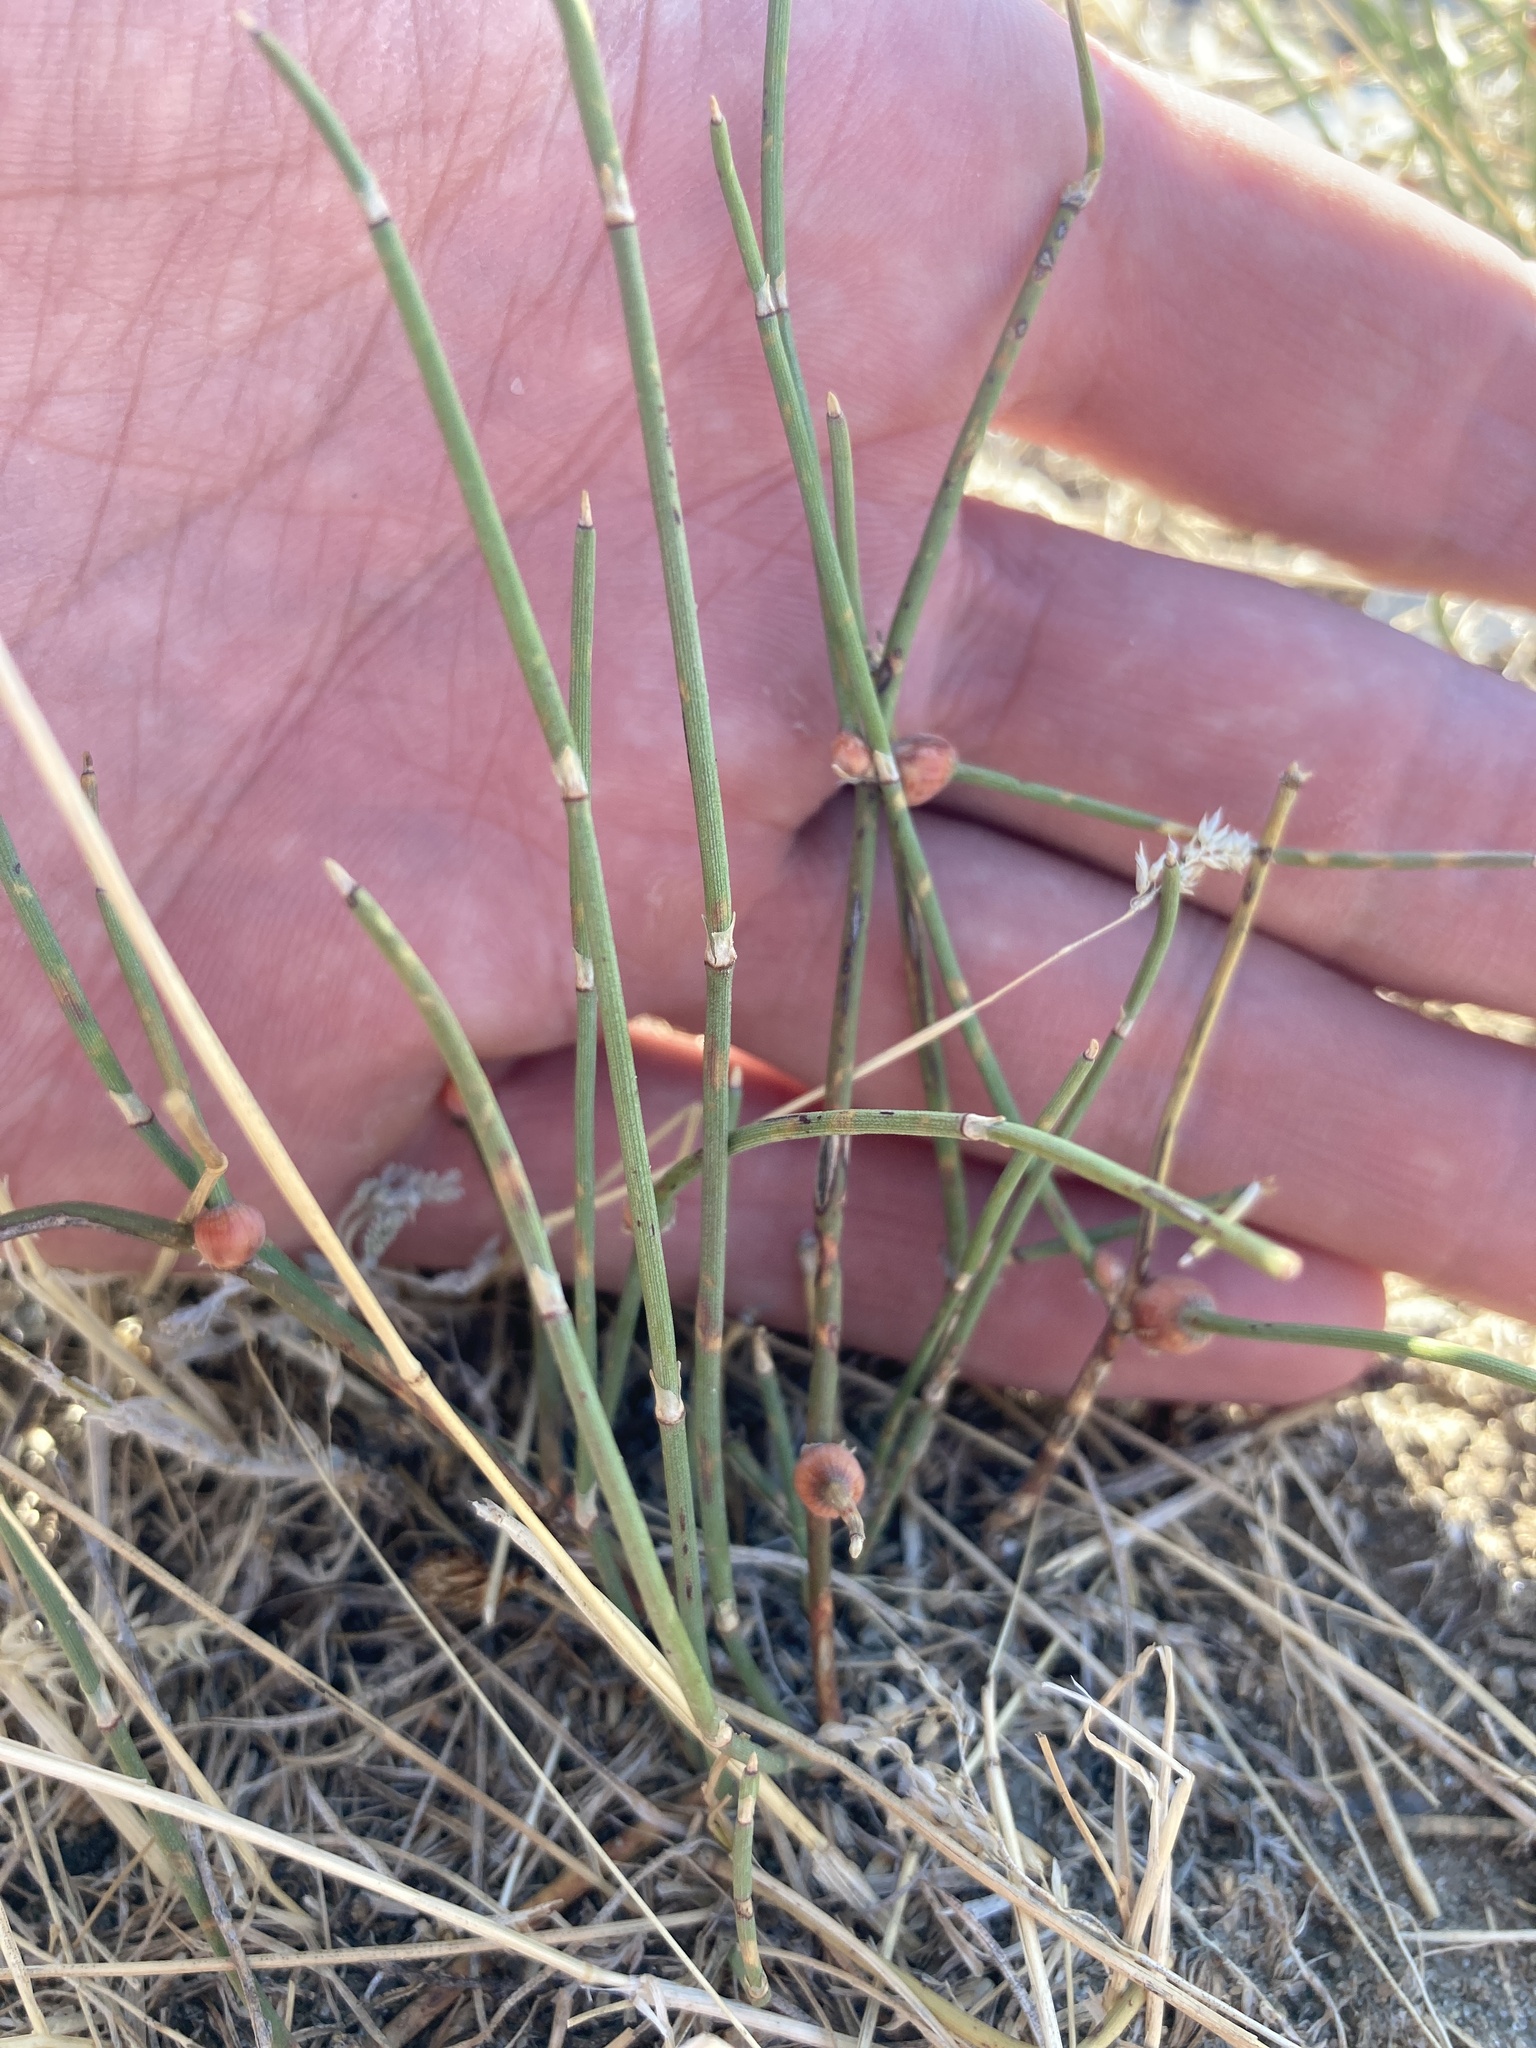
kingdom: Plantae
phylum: Tracheophyta
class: Gnetopsida
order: Ephedrales
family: Ephedraceae
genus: Ephedra
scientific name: Ephedra distachya
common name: Sea grape
